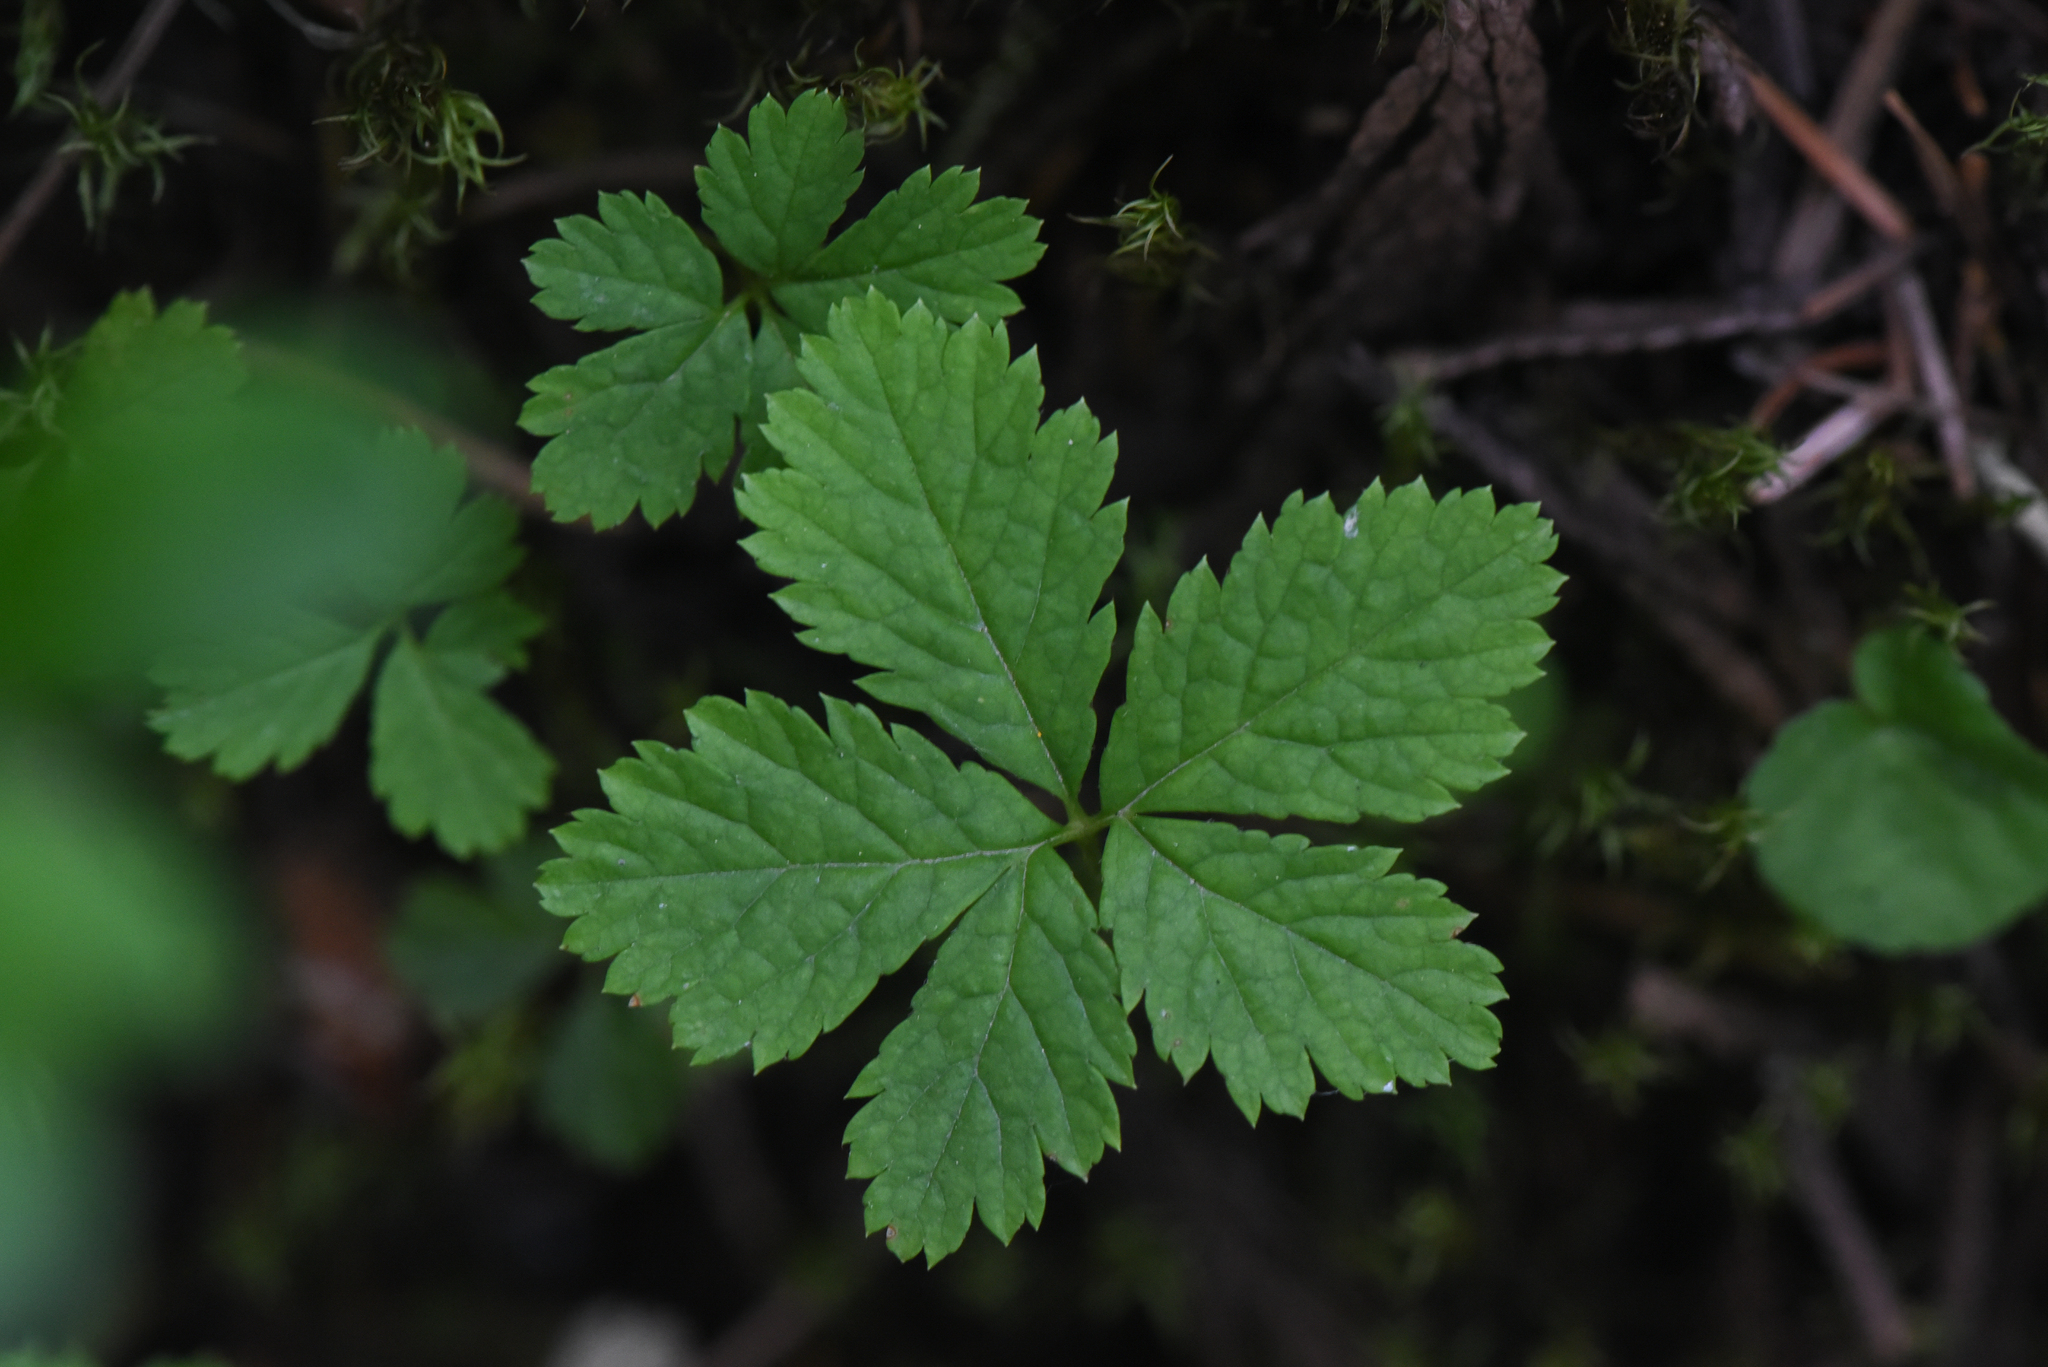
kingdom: Plantae
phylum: Tracheophyta
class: Magnoliopsida
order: Rosales
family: Rosaceae
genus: Rubus
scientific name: Rubus pedatus
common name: Creeping raspberry
